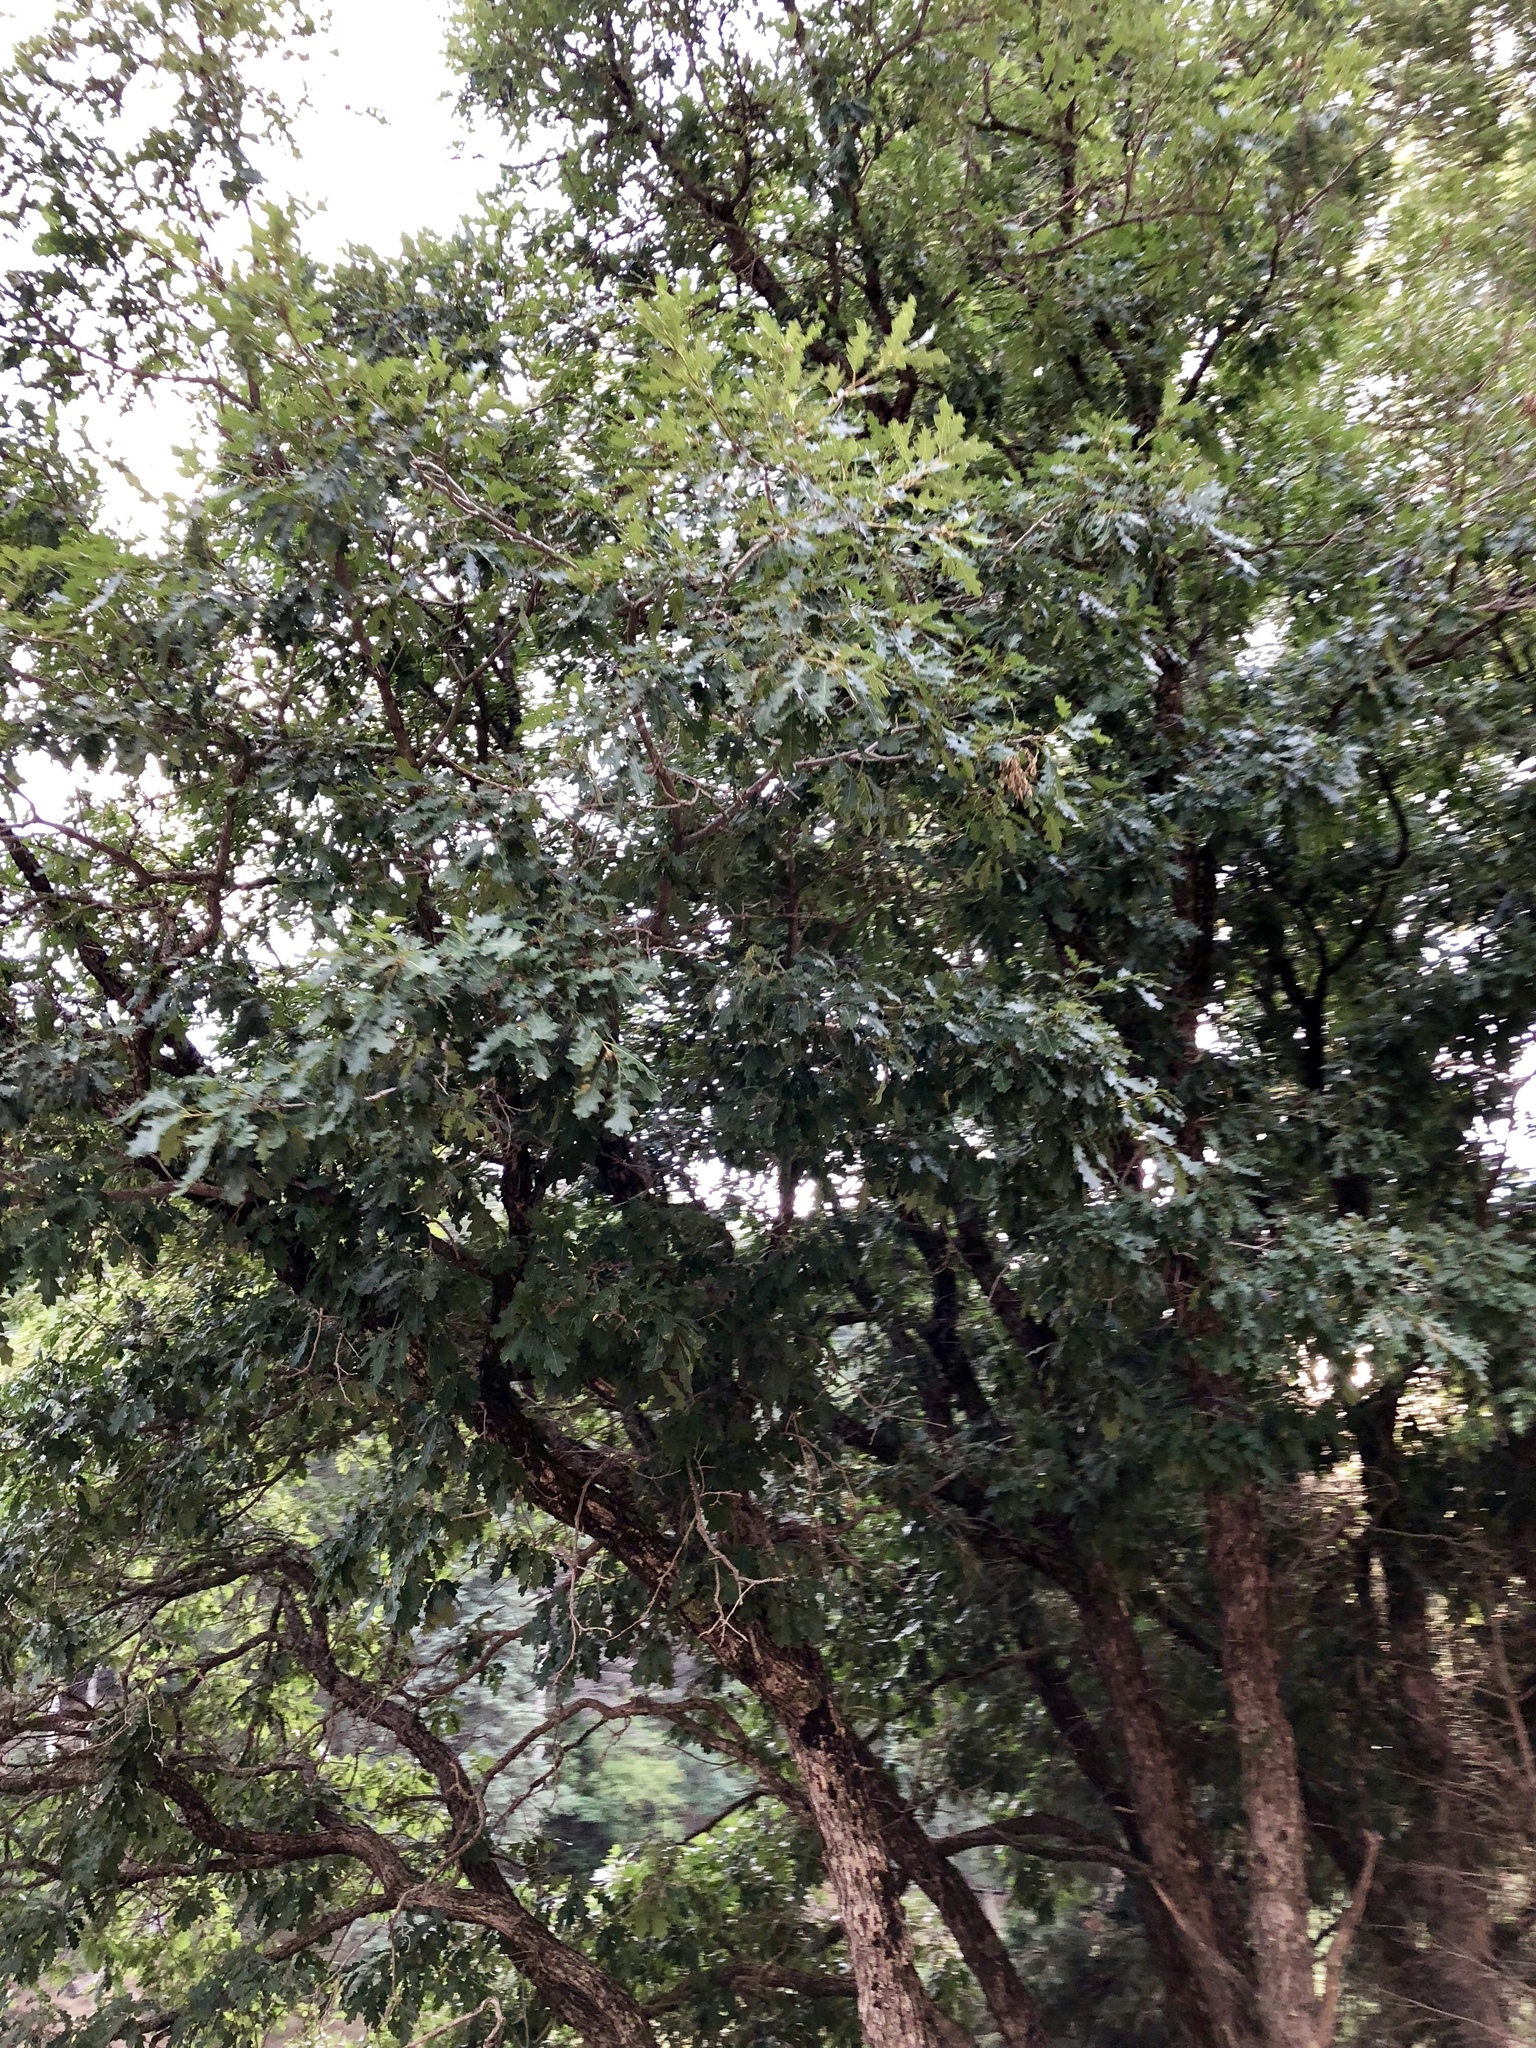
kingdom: Plantae
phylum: Tracheophyta
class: Magnoliopsida
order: Fagales
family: Fagaceae
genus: Quercus
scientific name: Quercus gambelii
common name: Gambel oak
